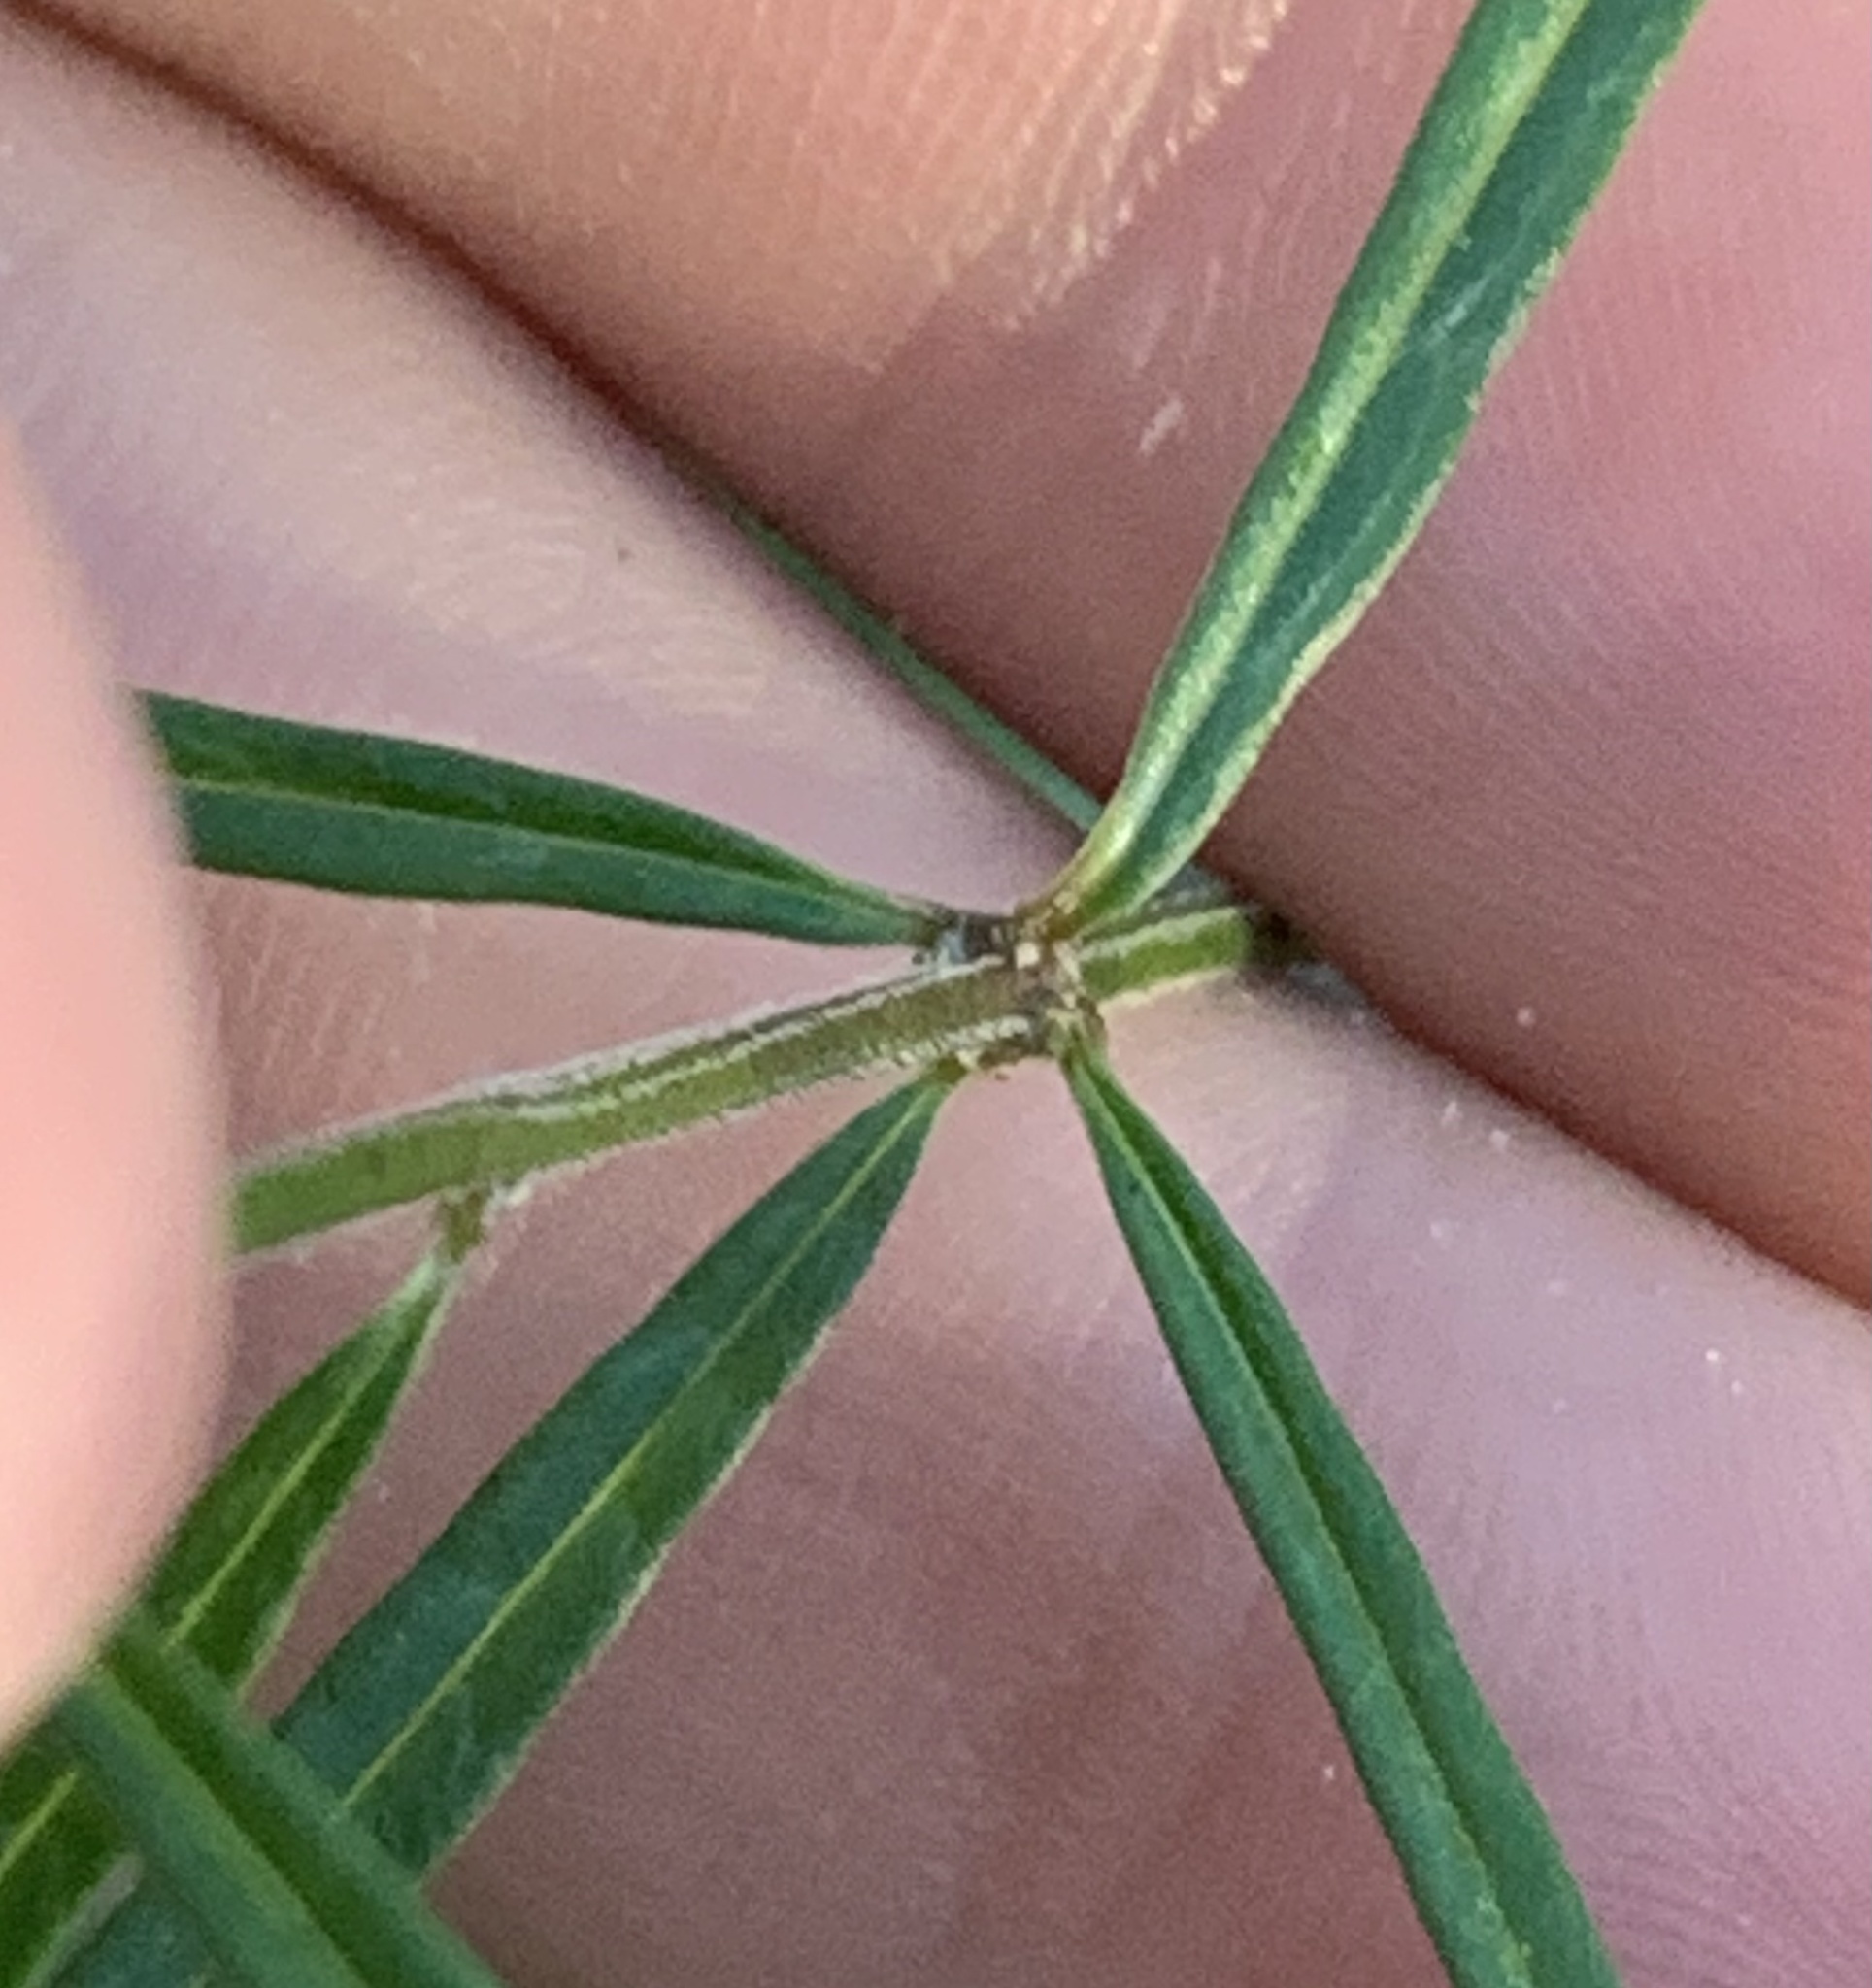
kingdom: Plantae
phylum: Tracheophyta
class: Magnoliopsida
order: Gentianales
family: Apocynaceae
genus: Asclepias
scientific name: Asclepias verticillata
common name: Eastern whorled milkweed
